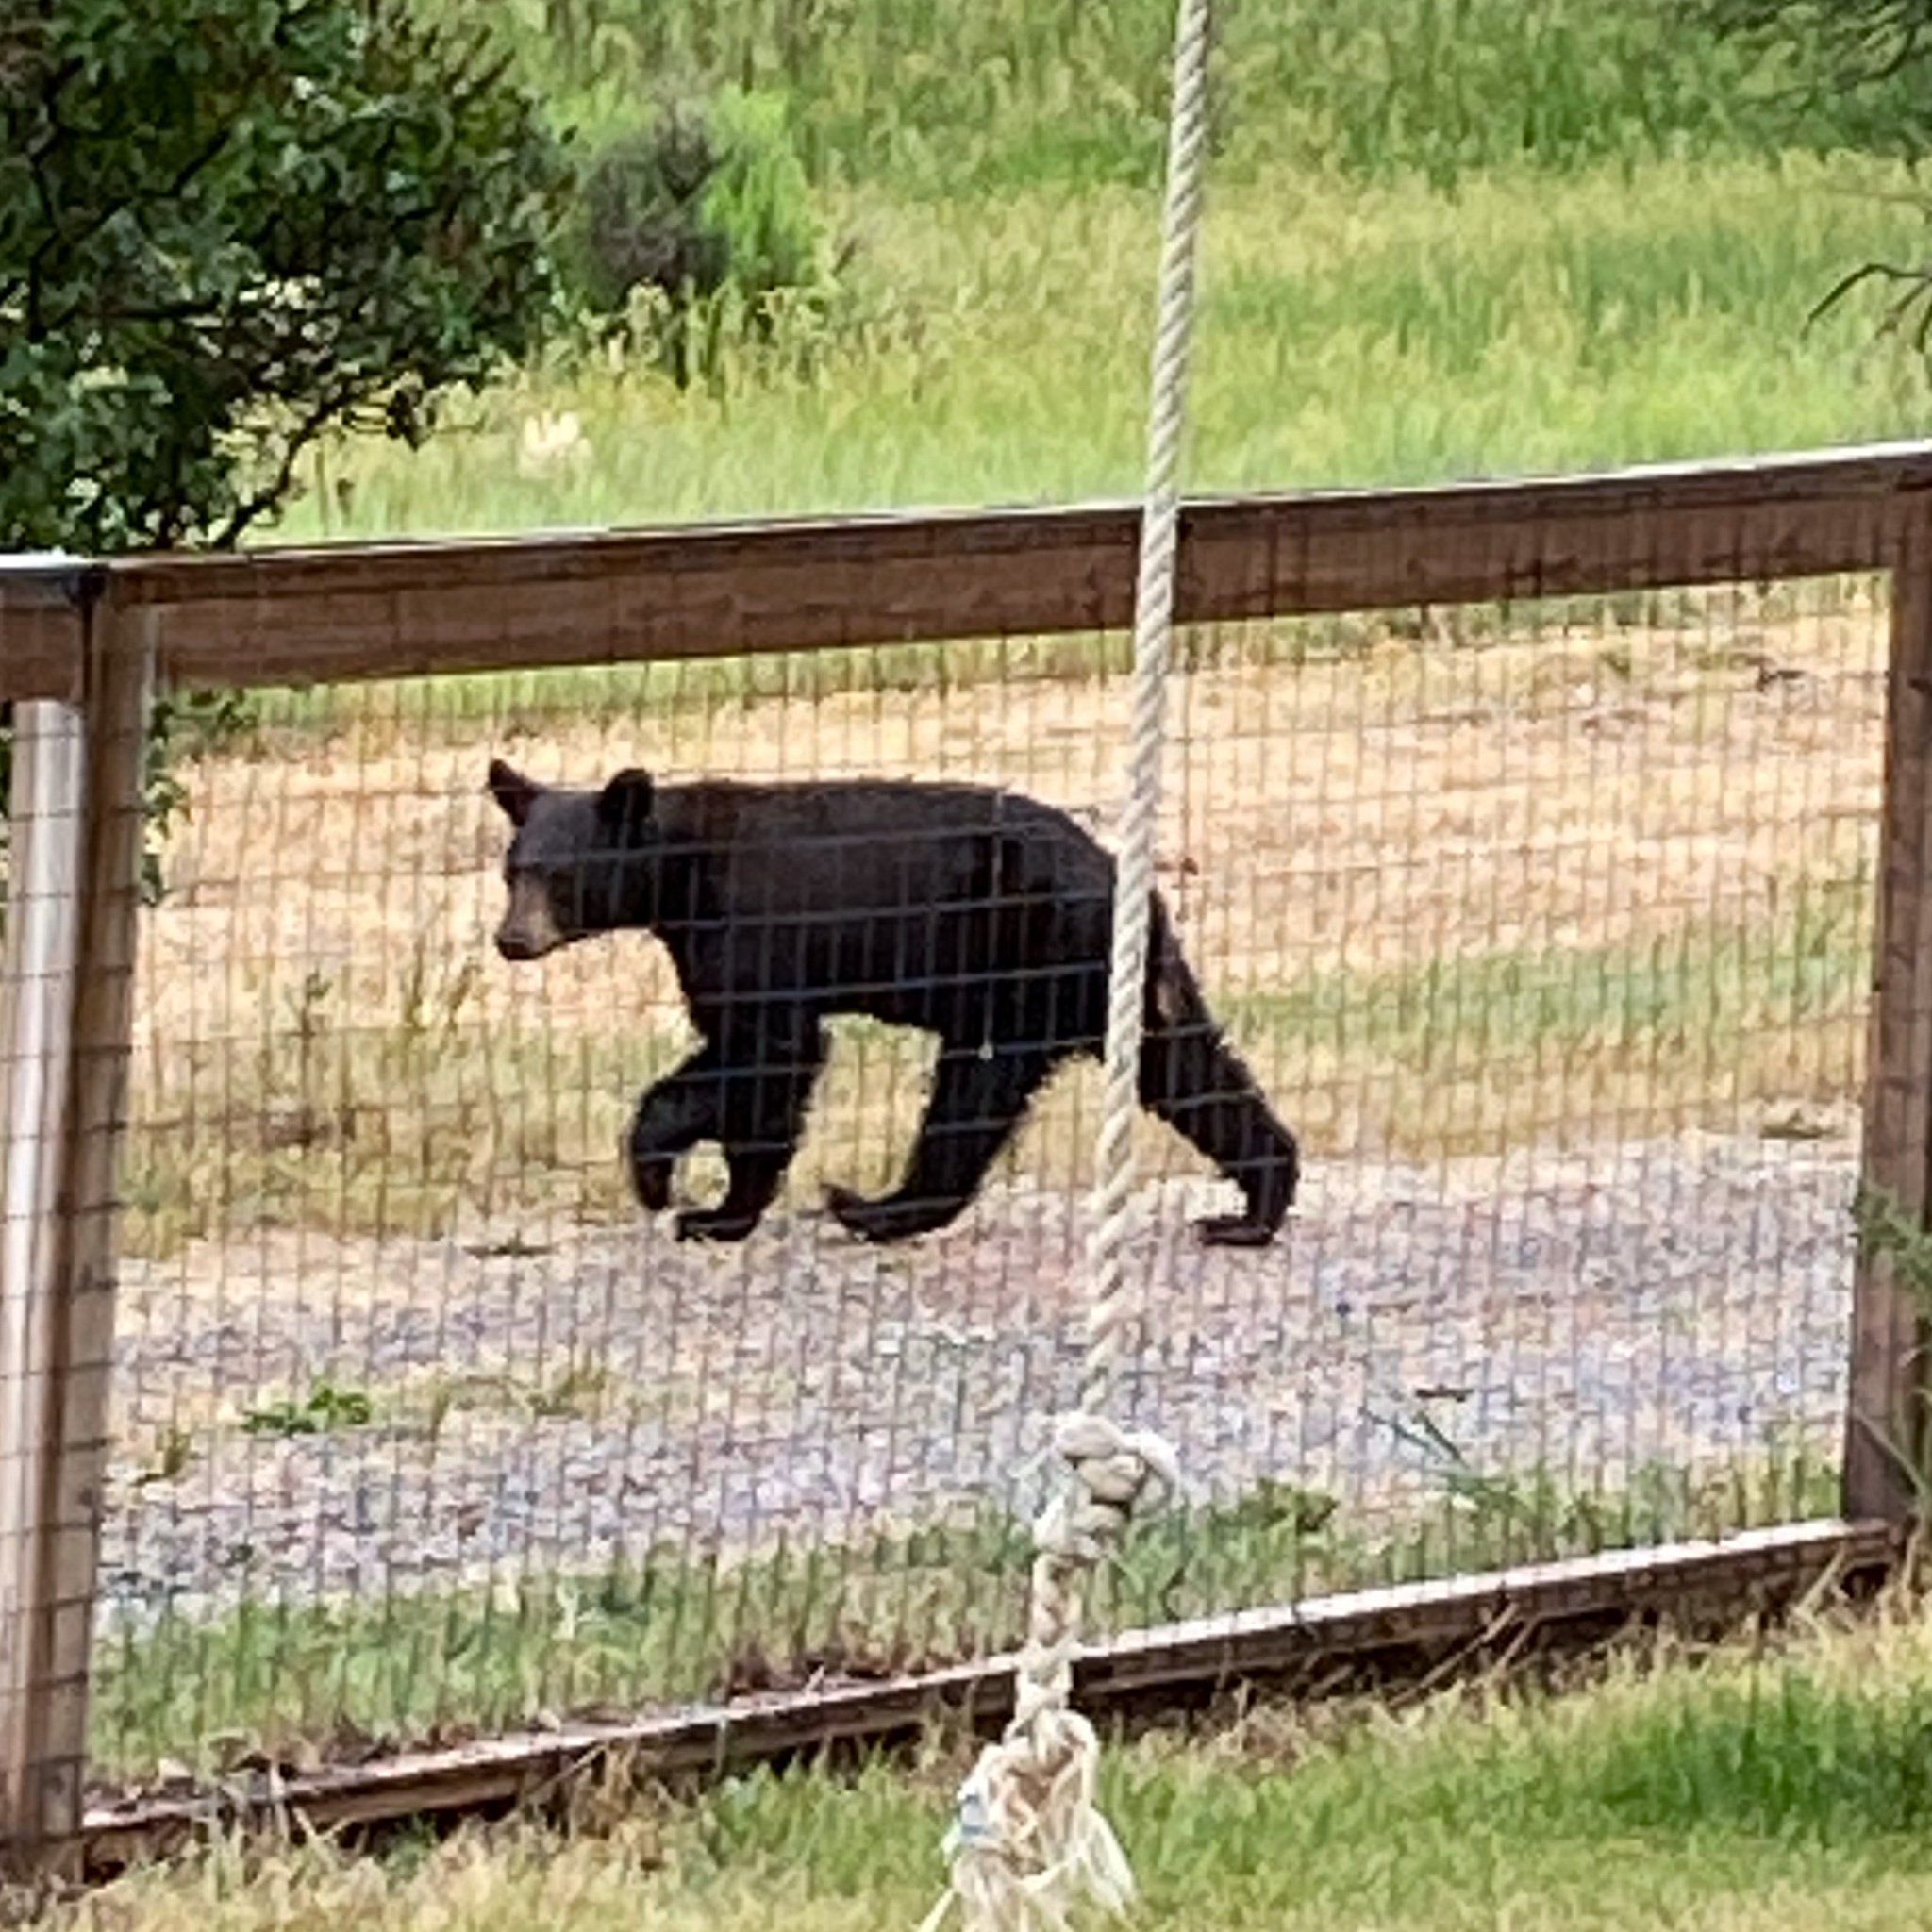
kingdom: Animalia
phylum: Chordata
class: Mammalia
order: Carnivora
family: Ursidae
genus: Ursus
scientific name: Ursus americanus
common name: American black bear
